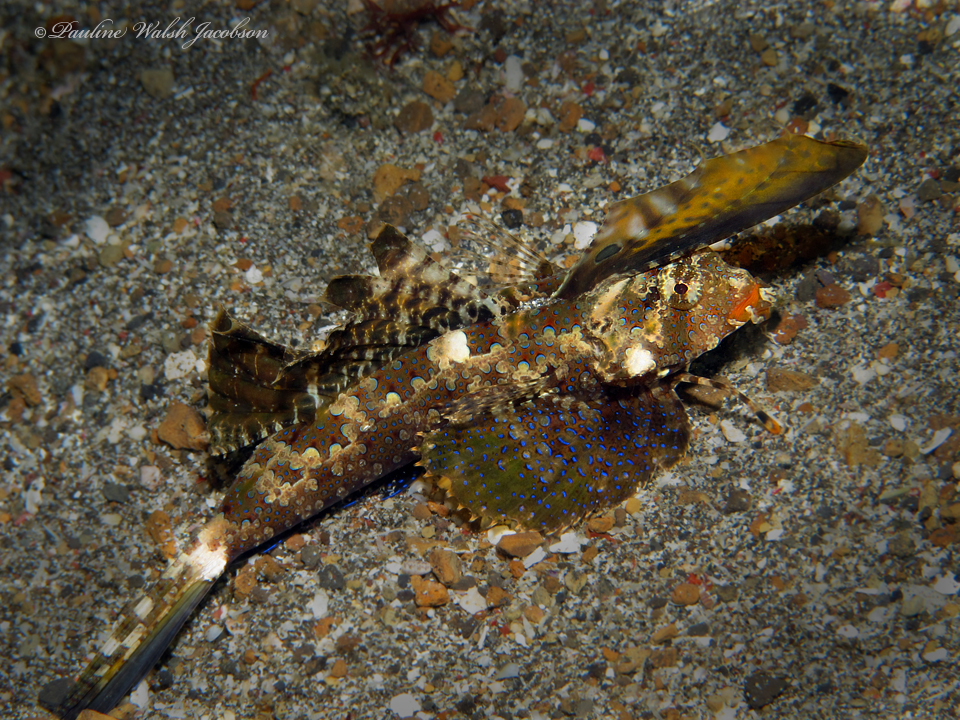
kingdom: Animalia
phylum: Chordata
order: Perciformes
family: Callionymidae
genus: Dactylopus
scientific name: Dactylopus kuiteri
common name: Kuiter's dragonet
